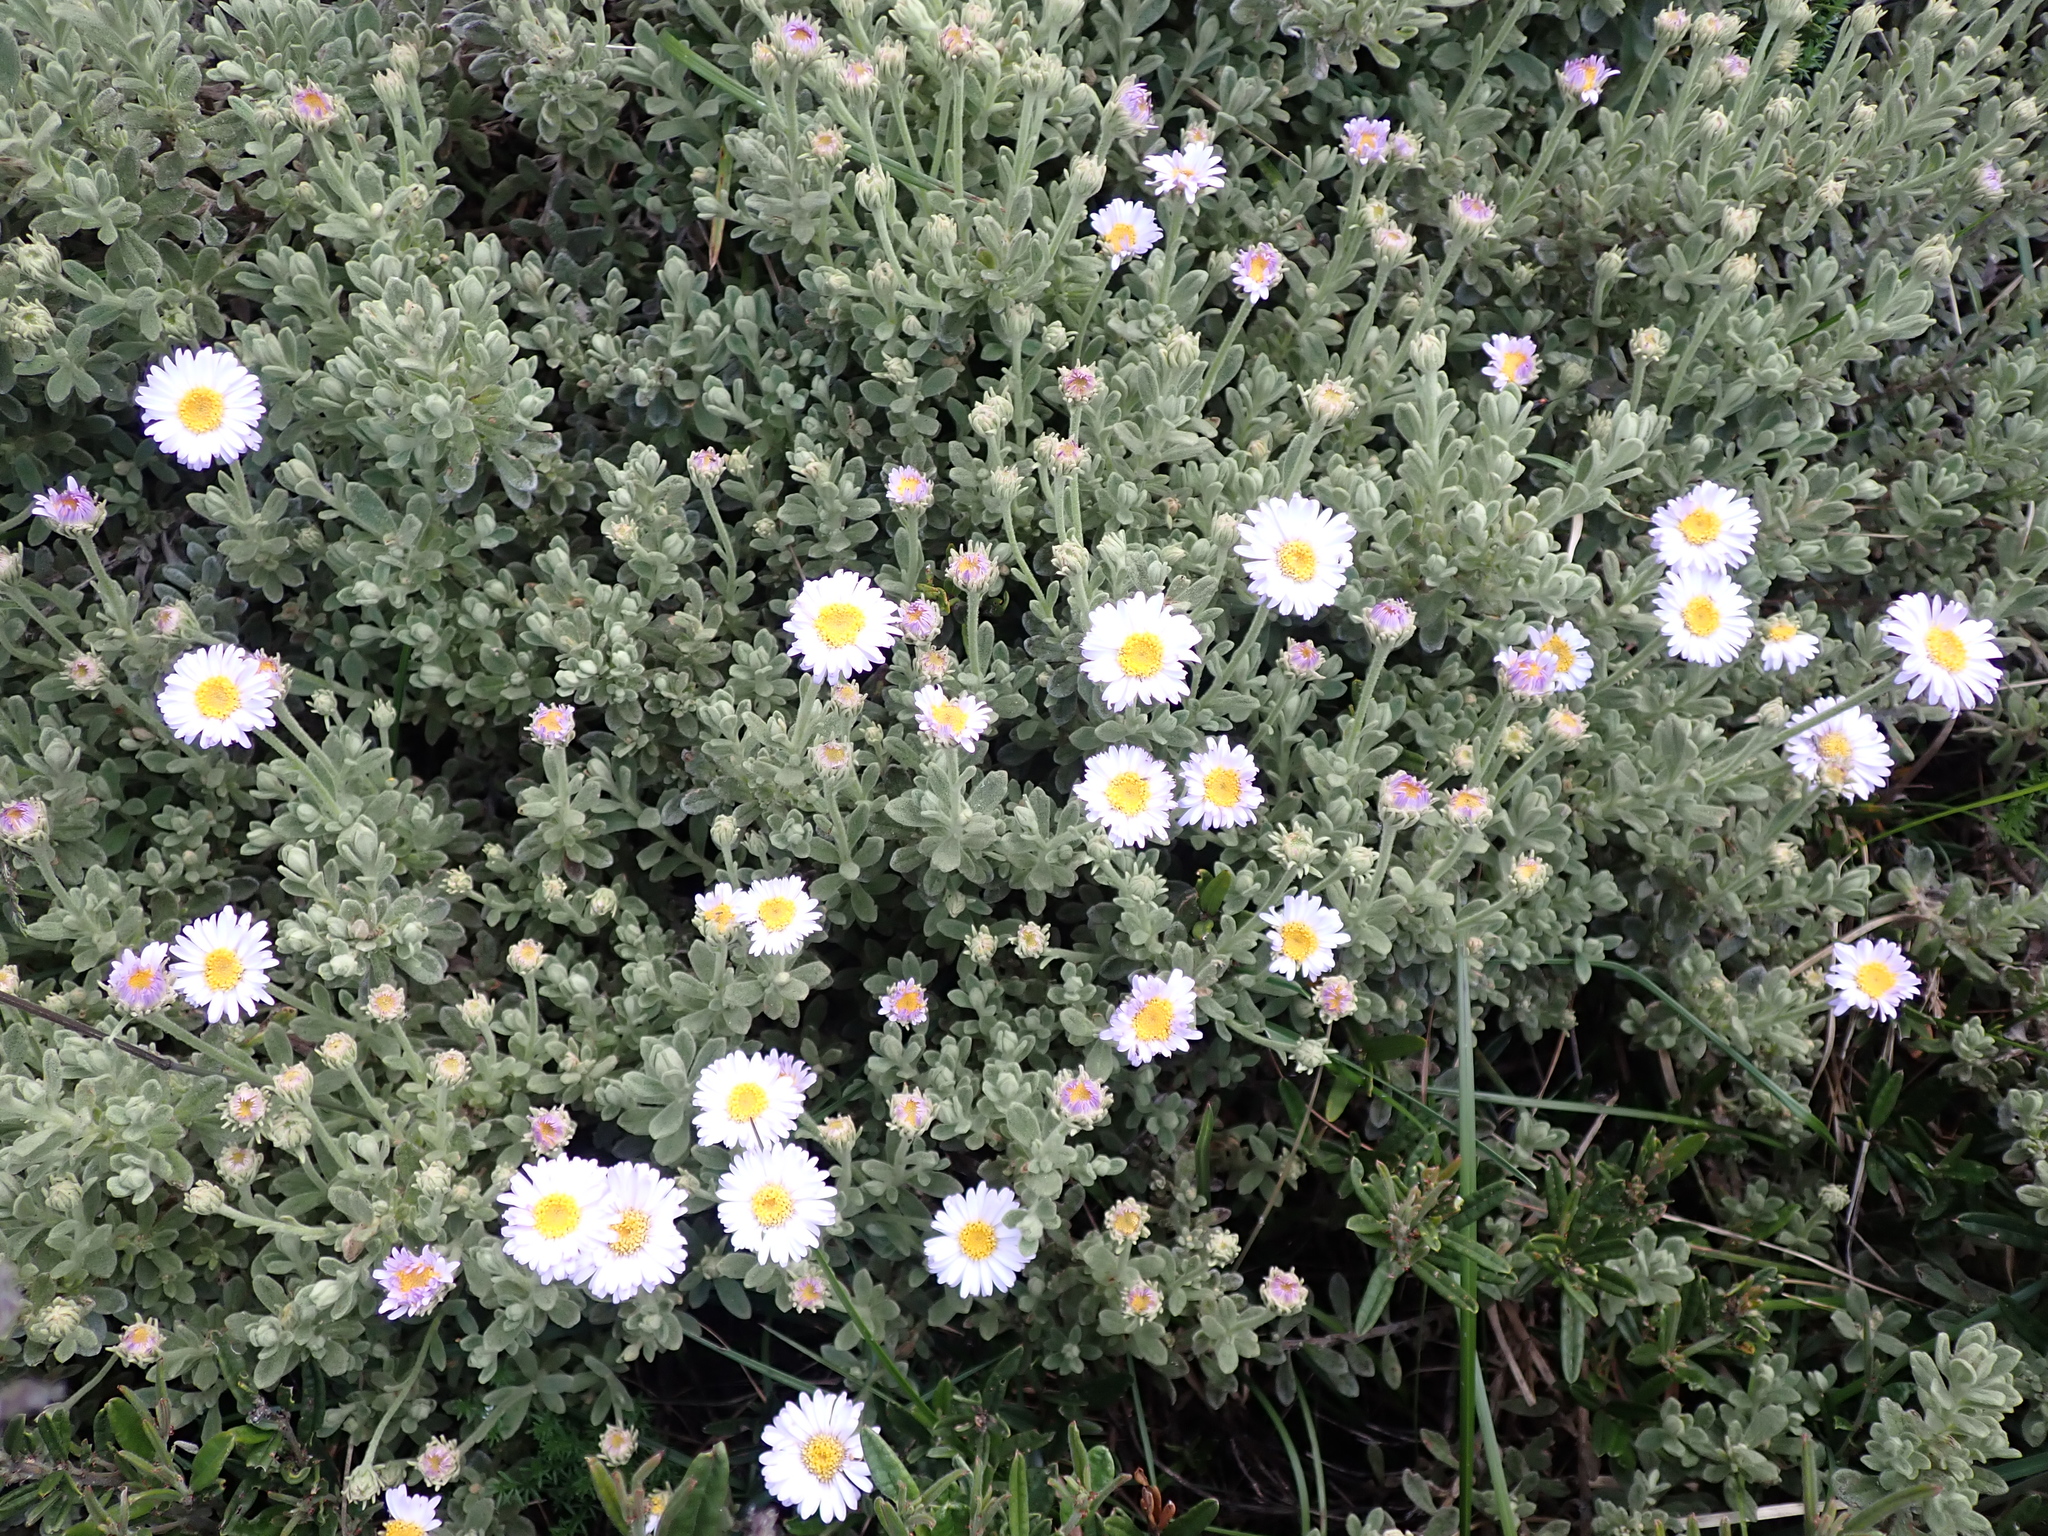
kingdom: Plantae
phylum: Tracheophyta
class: Magnoliopsida
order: Asterales
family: Asteraceae
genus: Olearia
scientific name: Olearia frostii
